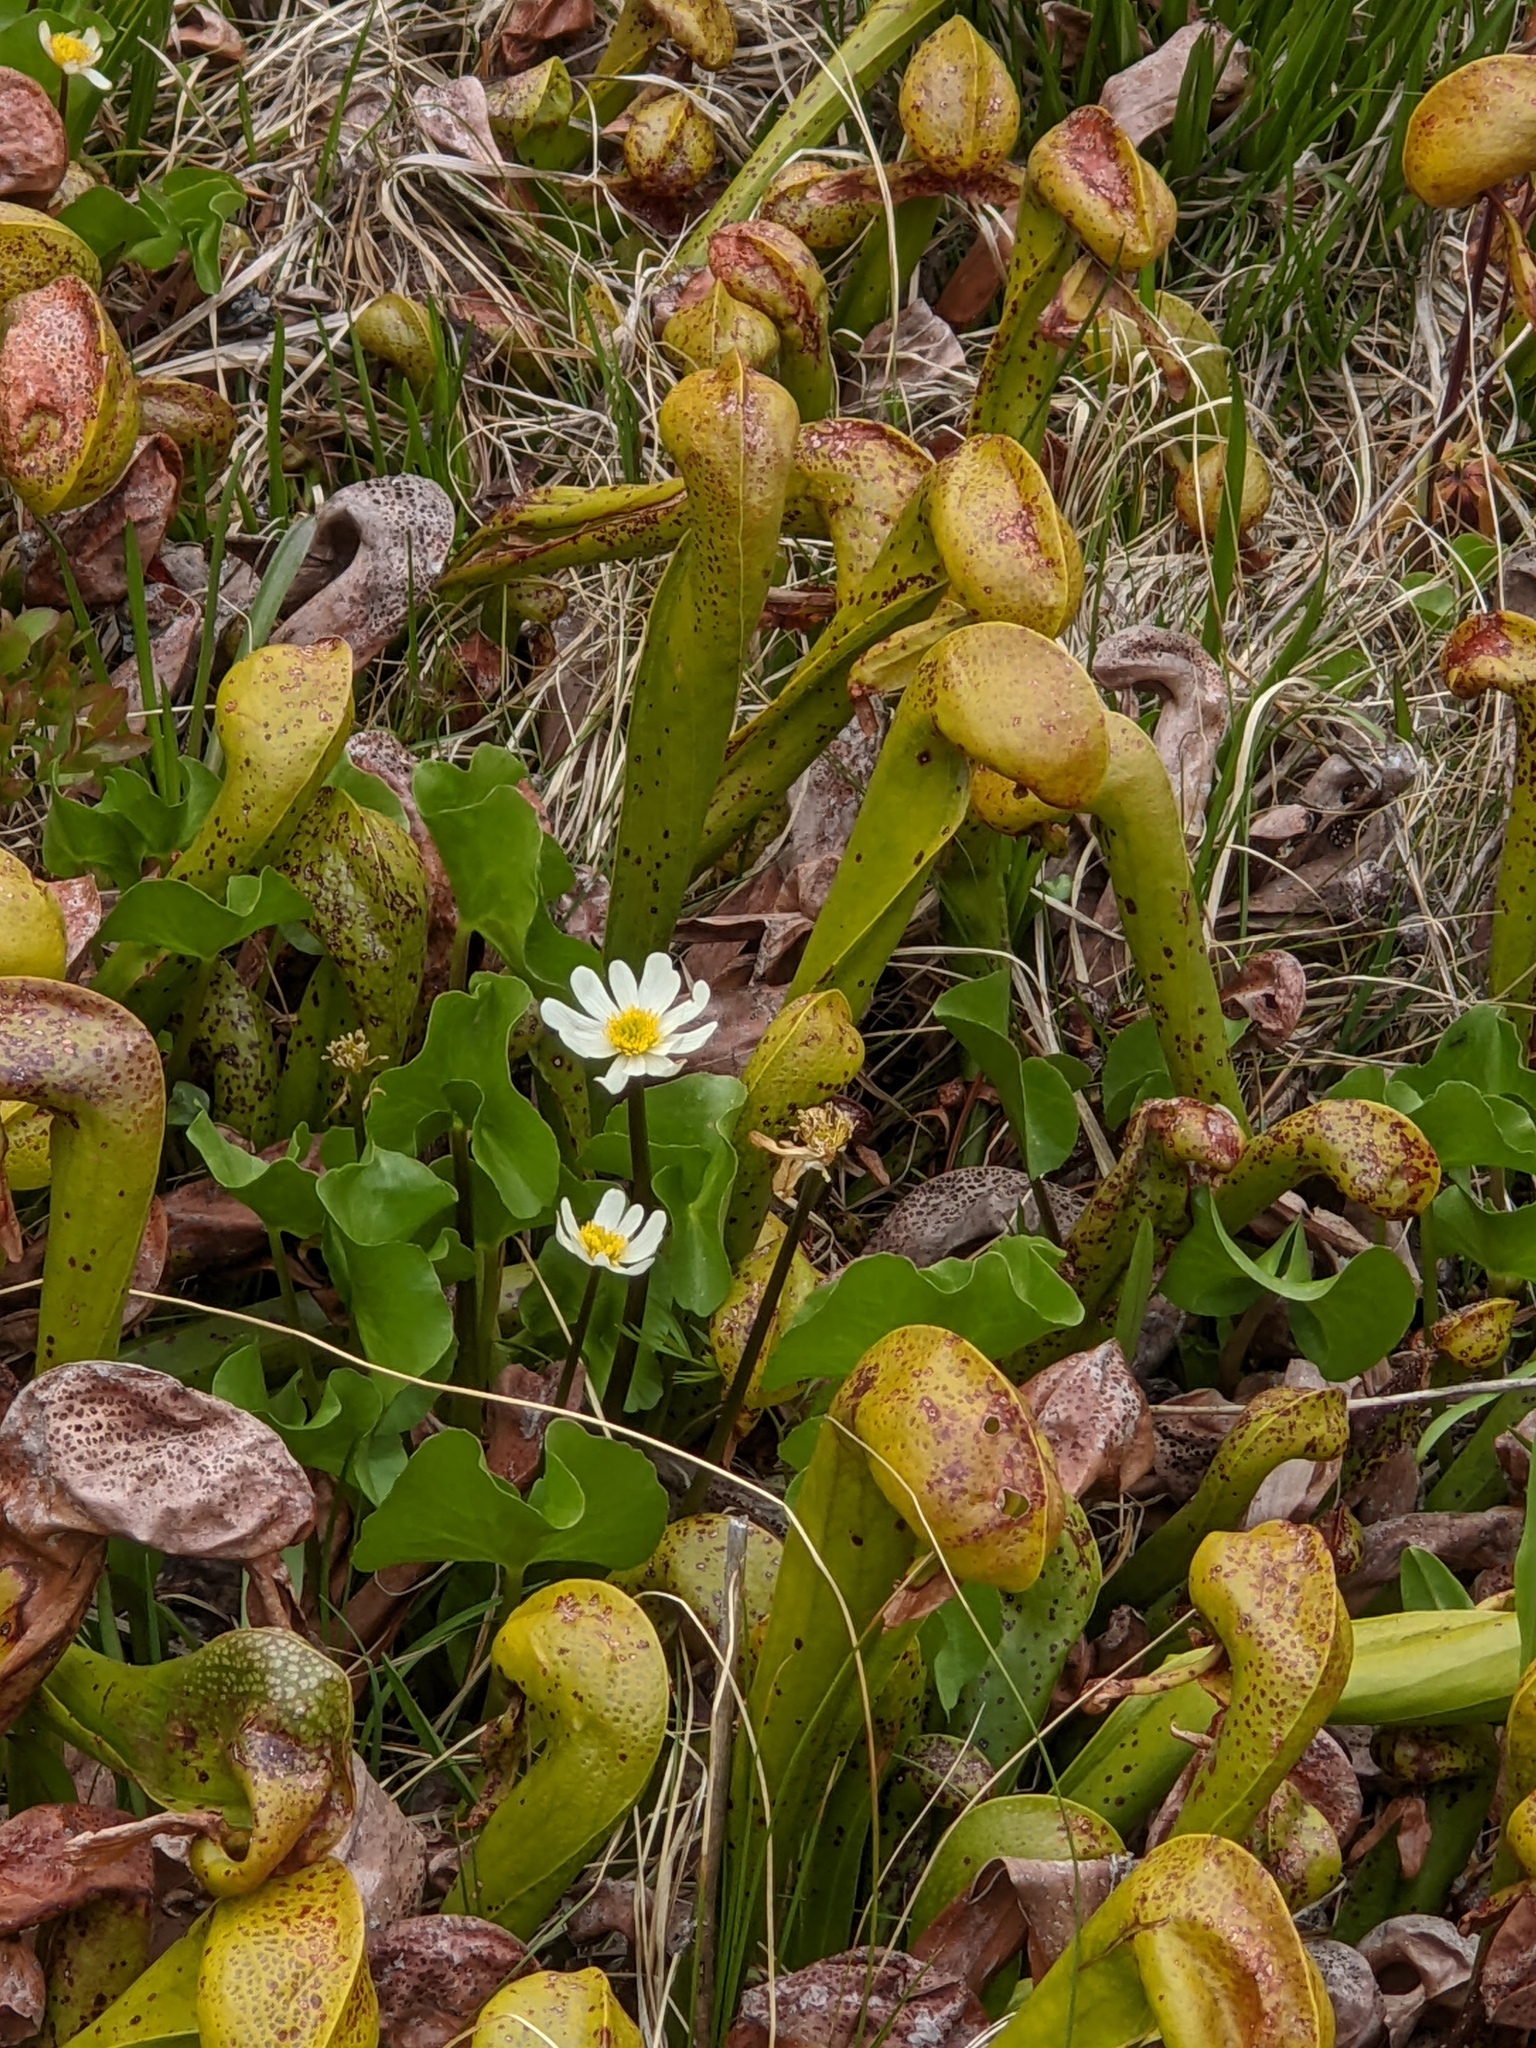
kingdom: Plantae
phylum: Tracheophyta
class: Magnoliopsida
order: Ranunculales
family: Ranunculaceae
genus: Caltha
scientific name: Caltha leptosepala
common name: Elkslip
